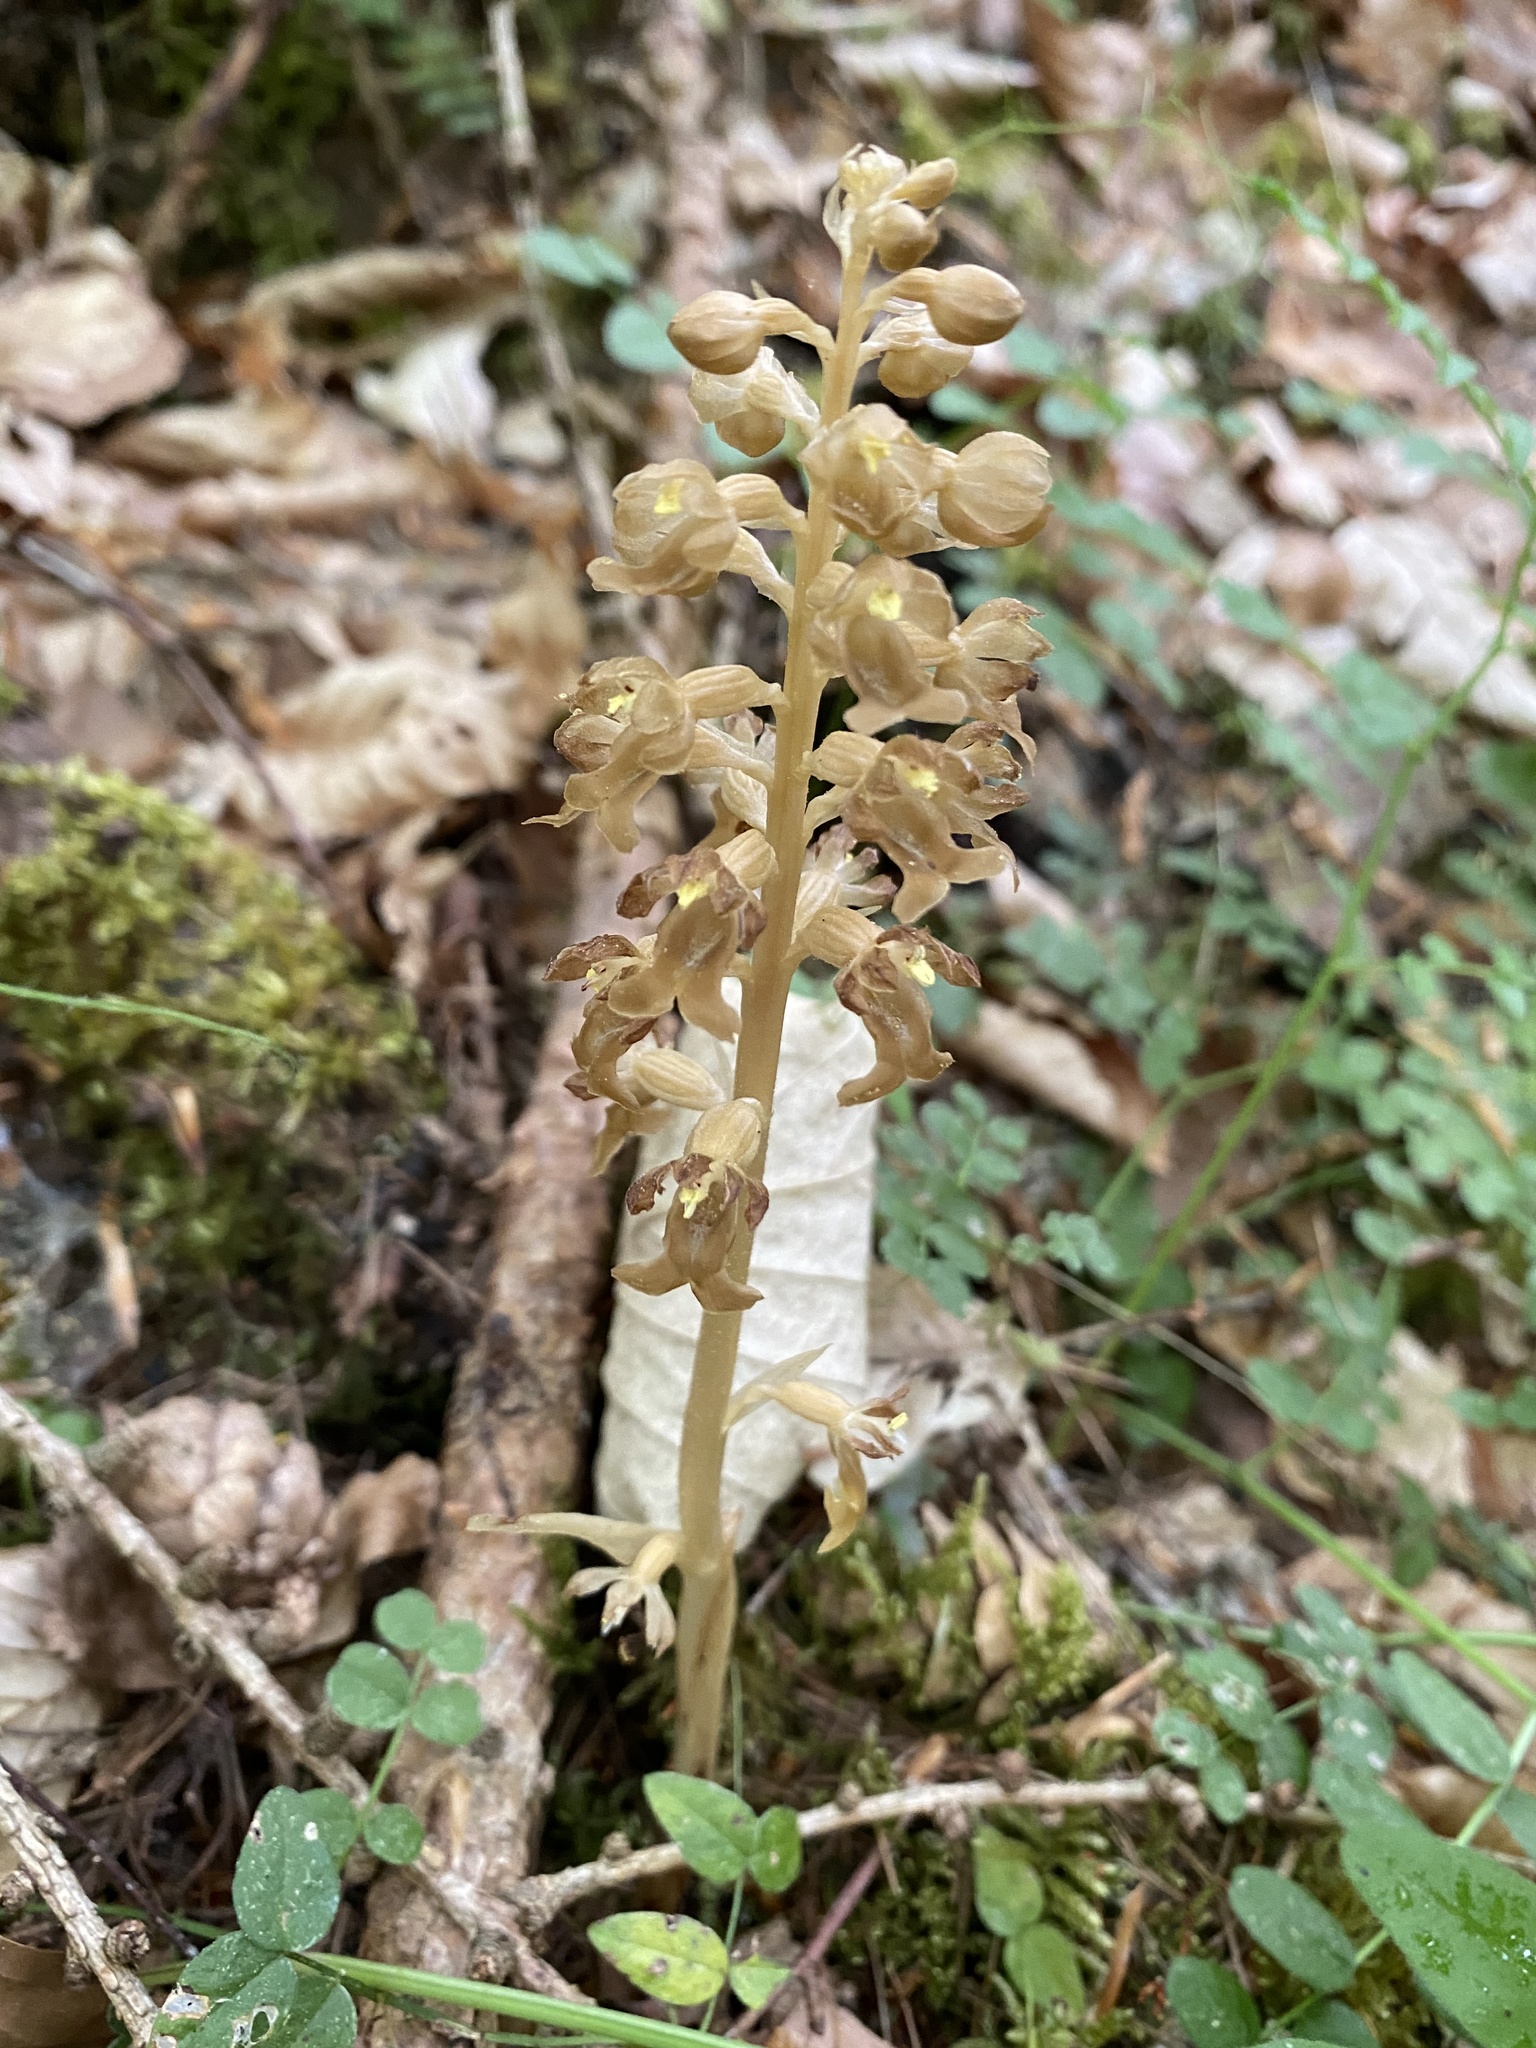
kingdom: Plantae
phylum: Tracheophyta
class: Liliopsida
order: Asparagales
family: Orchidaceae
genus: Neottia
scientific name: Neottia nidus-avis
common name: Bird's-nest orchid
